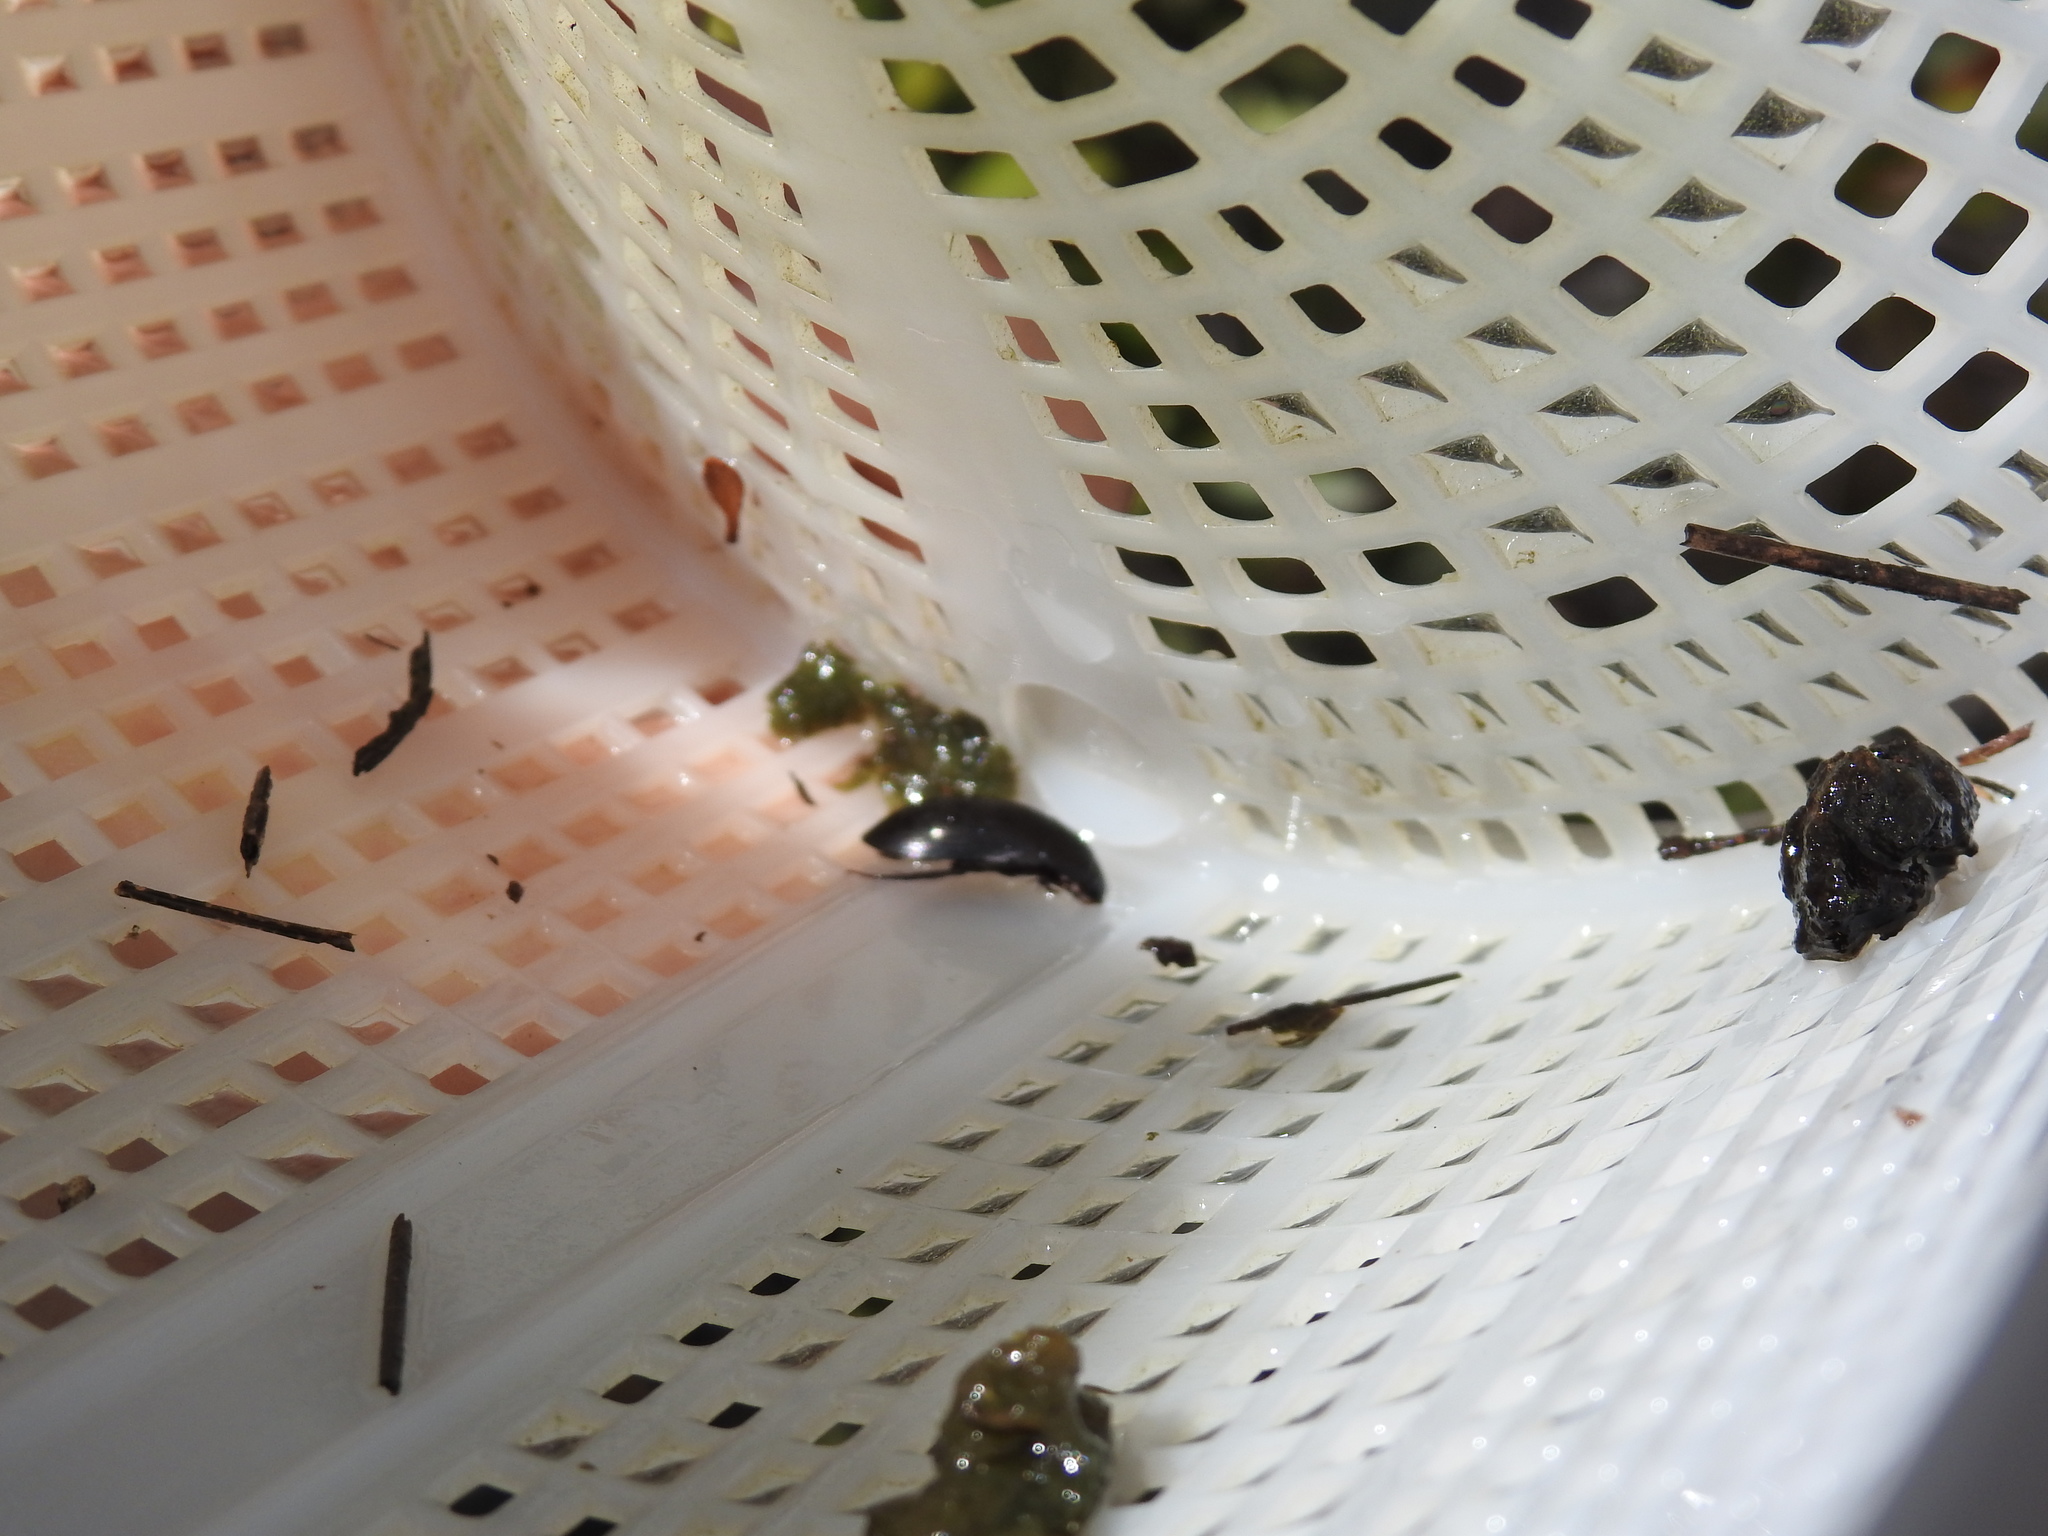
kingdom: Animalia
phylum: Arthropoda
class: Insecta
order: Coleoptera
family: Hydrophilidae
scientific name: Hydrophilidae
